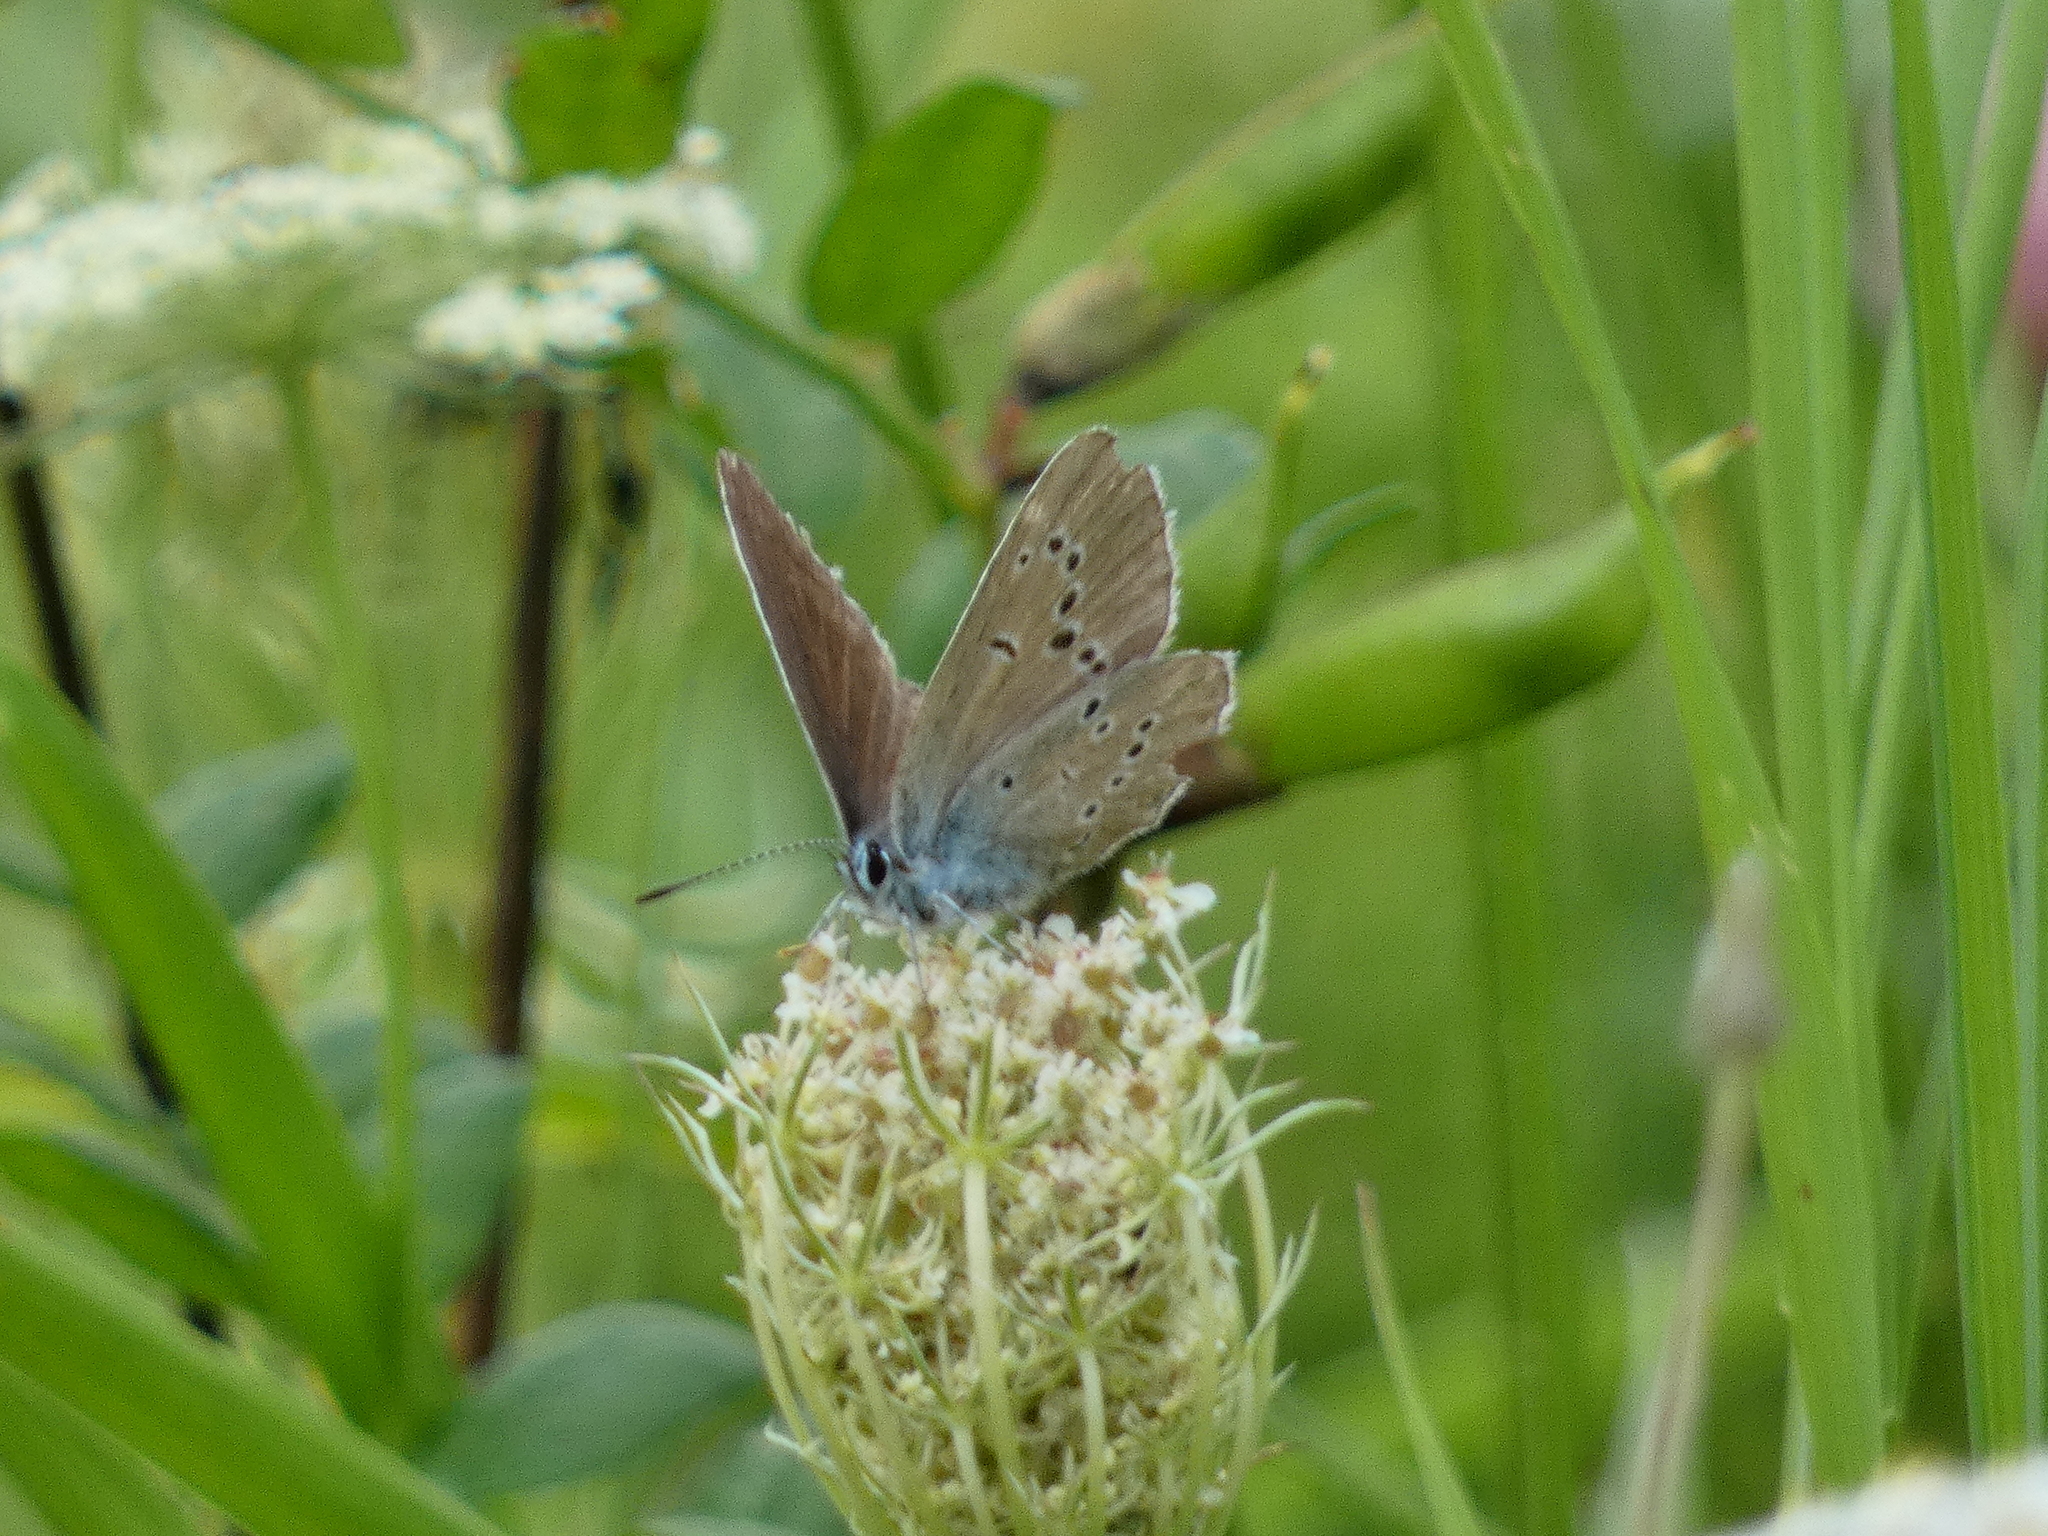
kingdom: Animalia
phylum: Arthropoda
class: Insecta
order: Lepidoptera
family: Lycaenidae
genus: Cyaniris
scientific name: Cyaniris semiargus
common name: Mazarine blue
